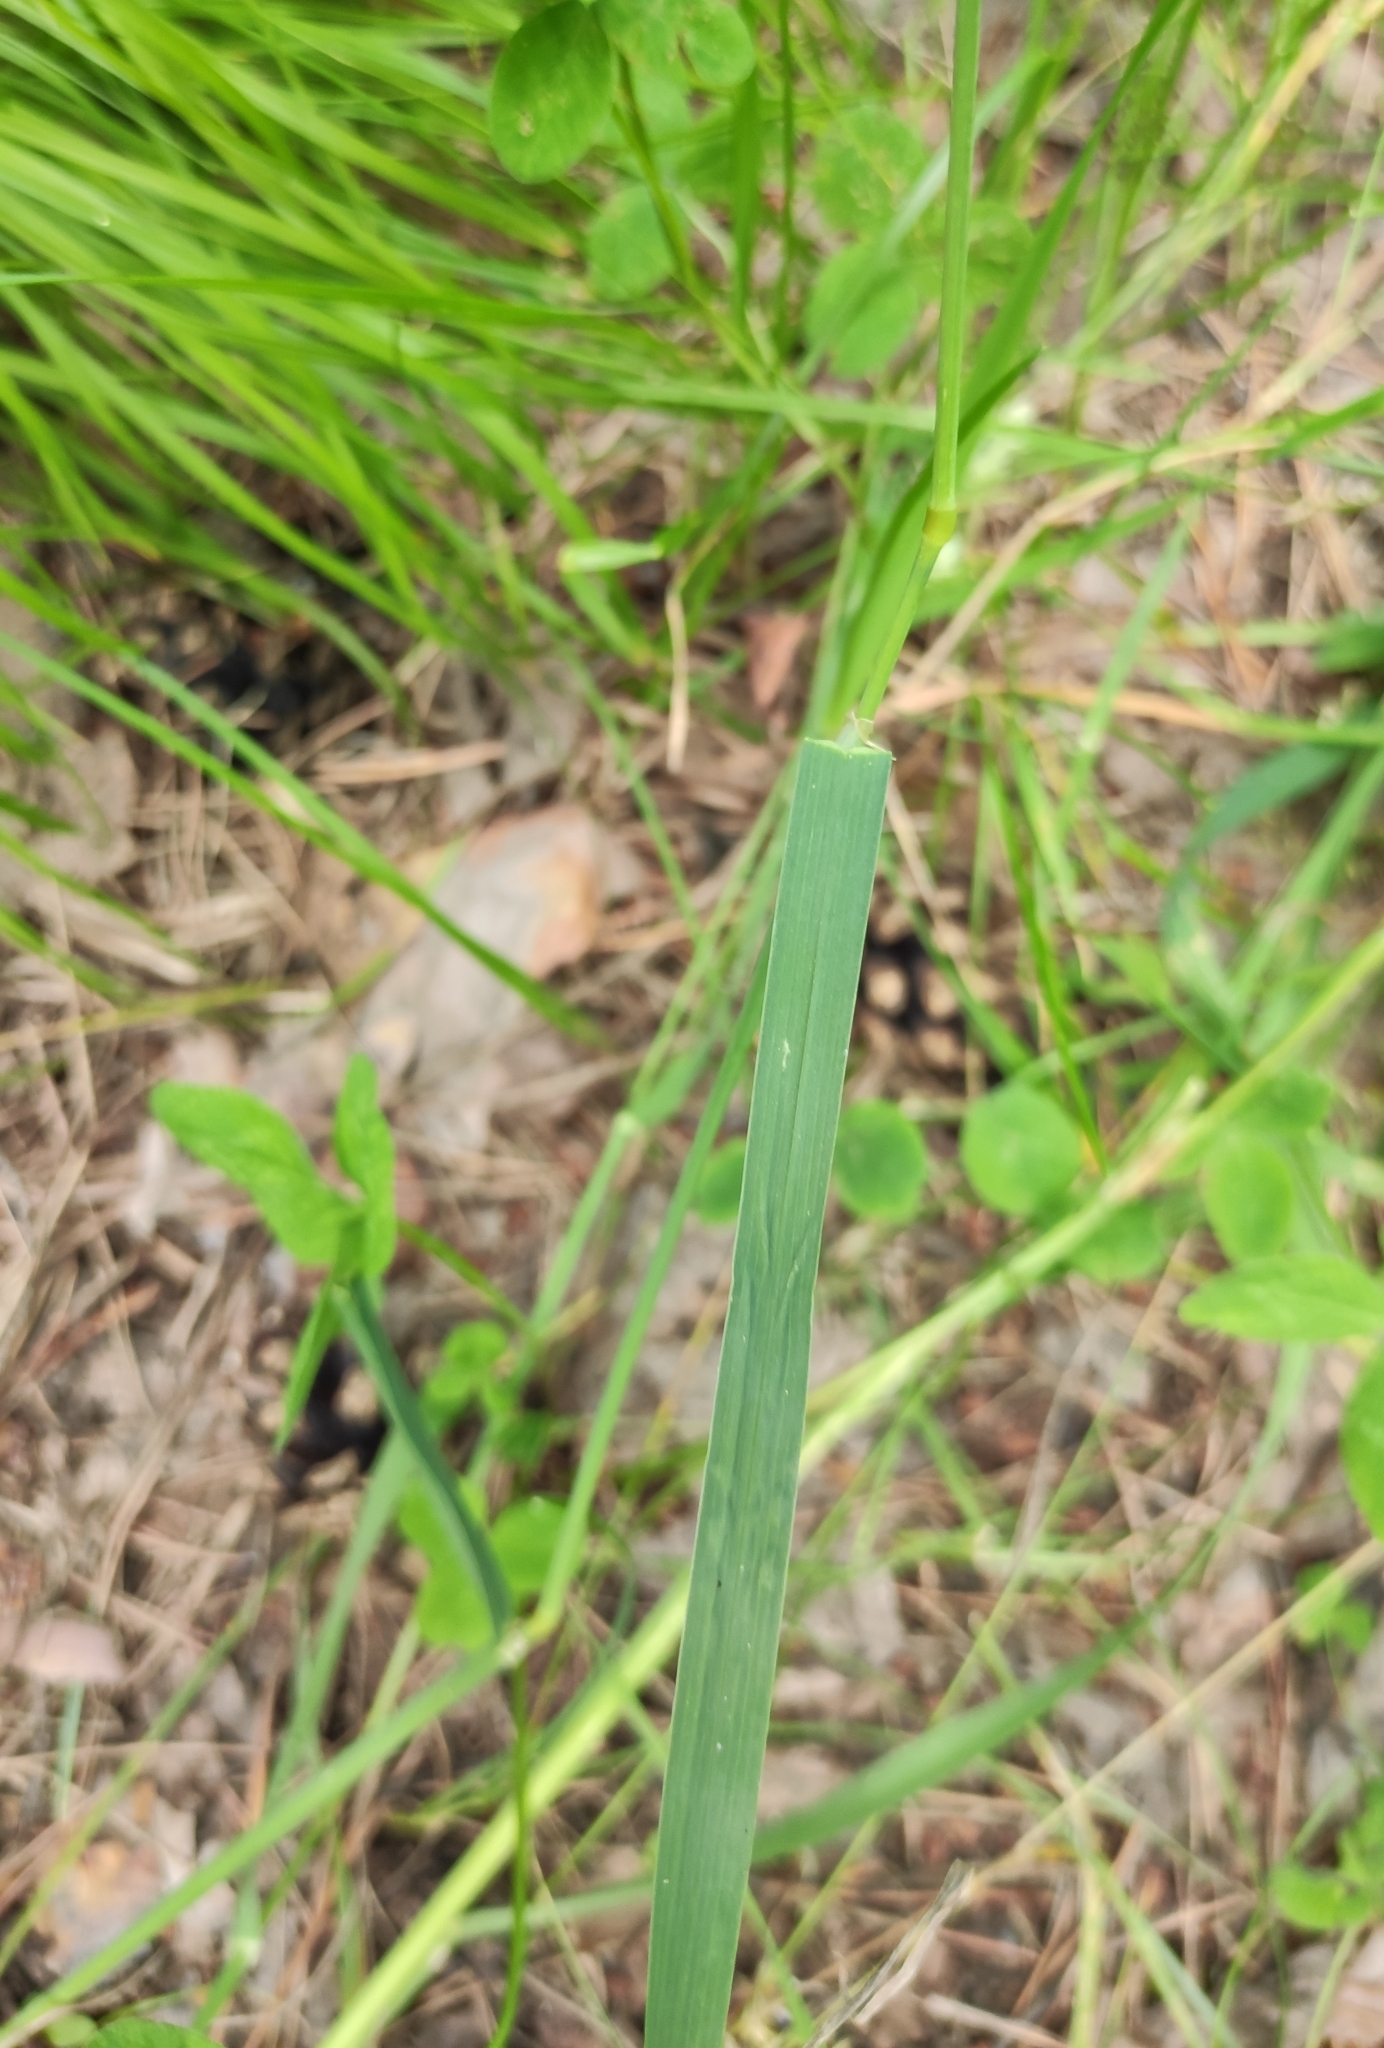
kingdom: Plantae
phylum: Tracheophyta
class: Liliopsida
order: Poales
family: Poaceae
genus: Dactylis
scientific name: Dactylis glomerata
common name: Orchardgrass
